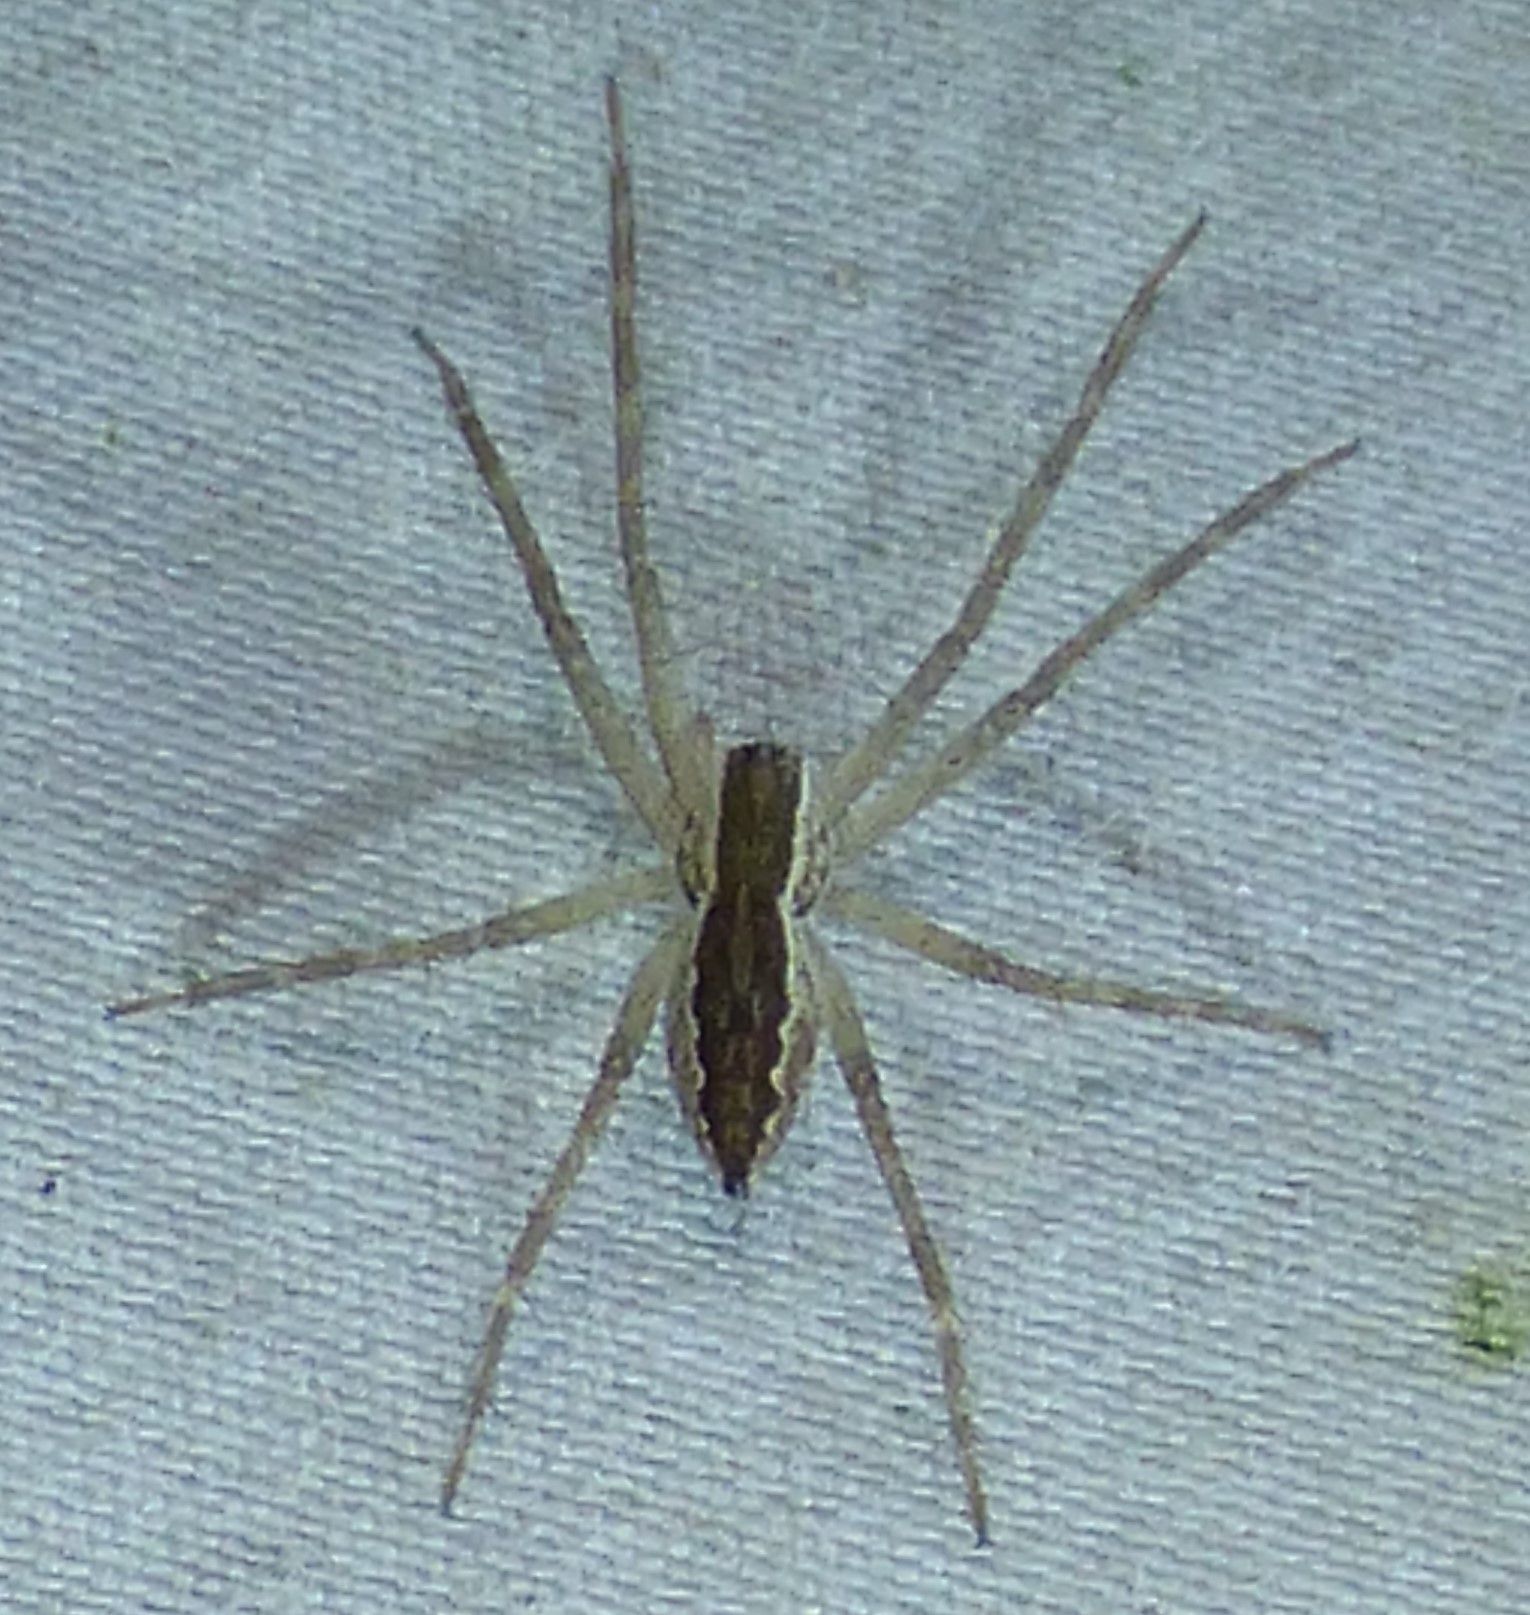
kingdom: Animalia
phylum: Arthropoda
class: Arachnida
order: Araneae
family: Pisauridae
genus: Pisaurina
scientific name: Pisaurina mira
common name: American nursery web spider
